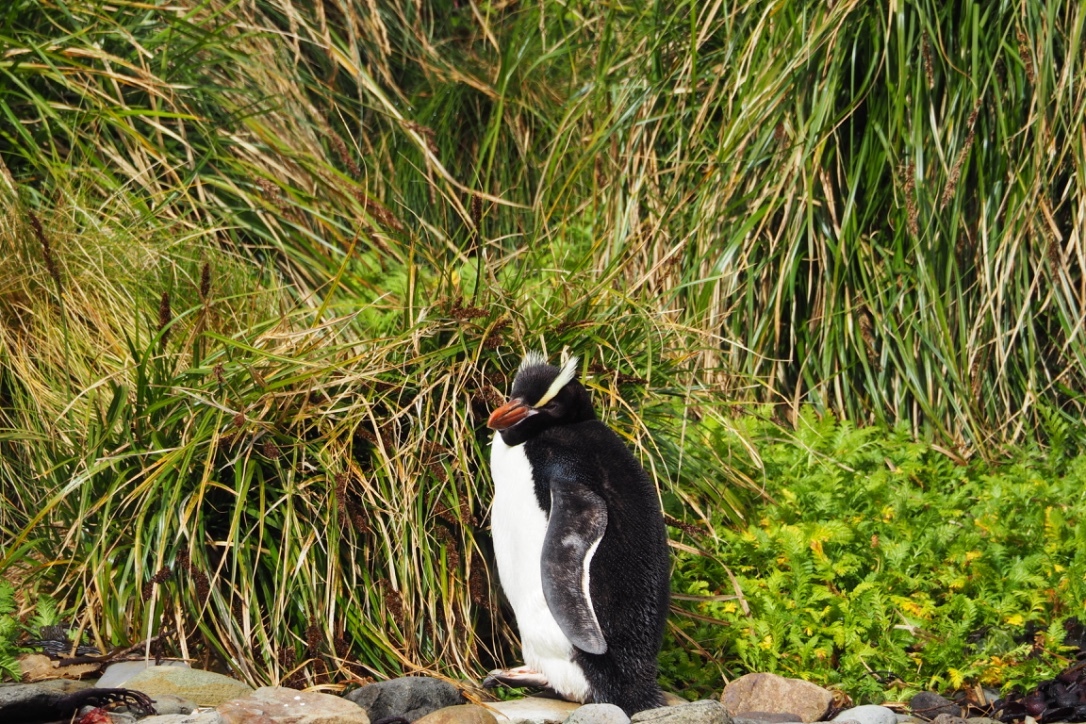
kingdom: Animalia
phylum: Chordata
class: Aves
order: Sphenisciformes
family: Spheniscidae
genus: Eudyptes
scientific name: Eudyptes sclateri
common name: Erect-crested penguin
